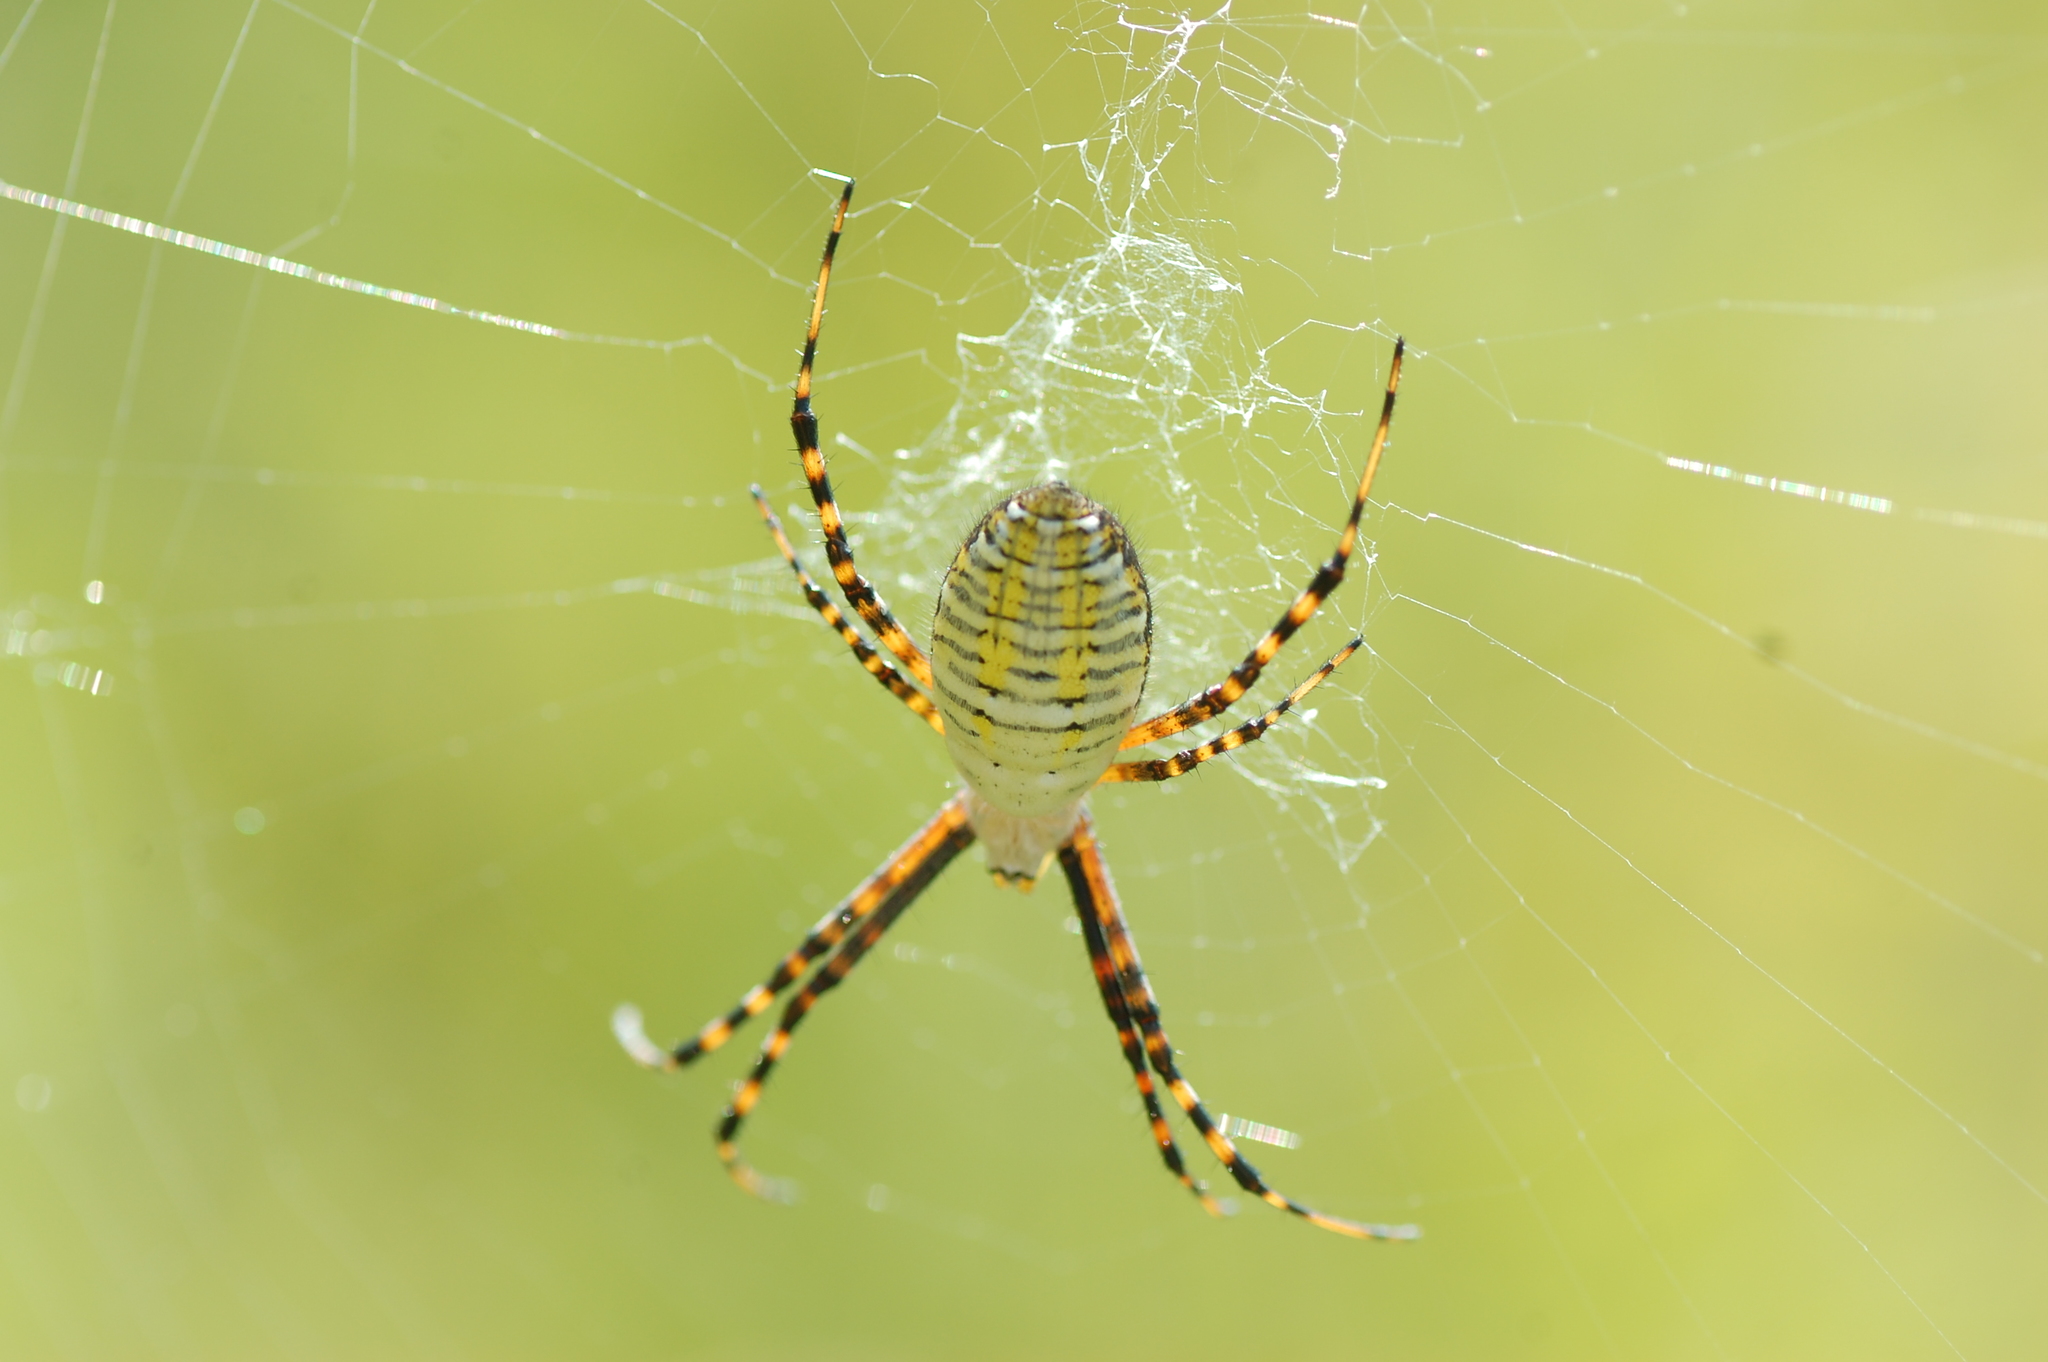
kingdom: Animalia
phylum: Arthropoda
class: Arachnida
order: Araneae
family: Araneidae
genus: Argiope
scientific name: Argiope trifasciata
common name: Banded garden spider
